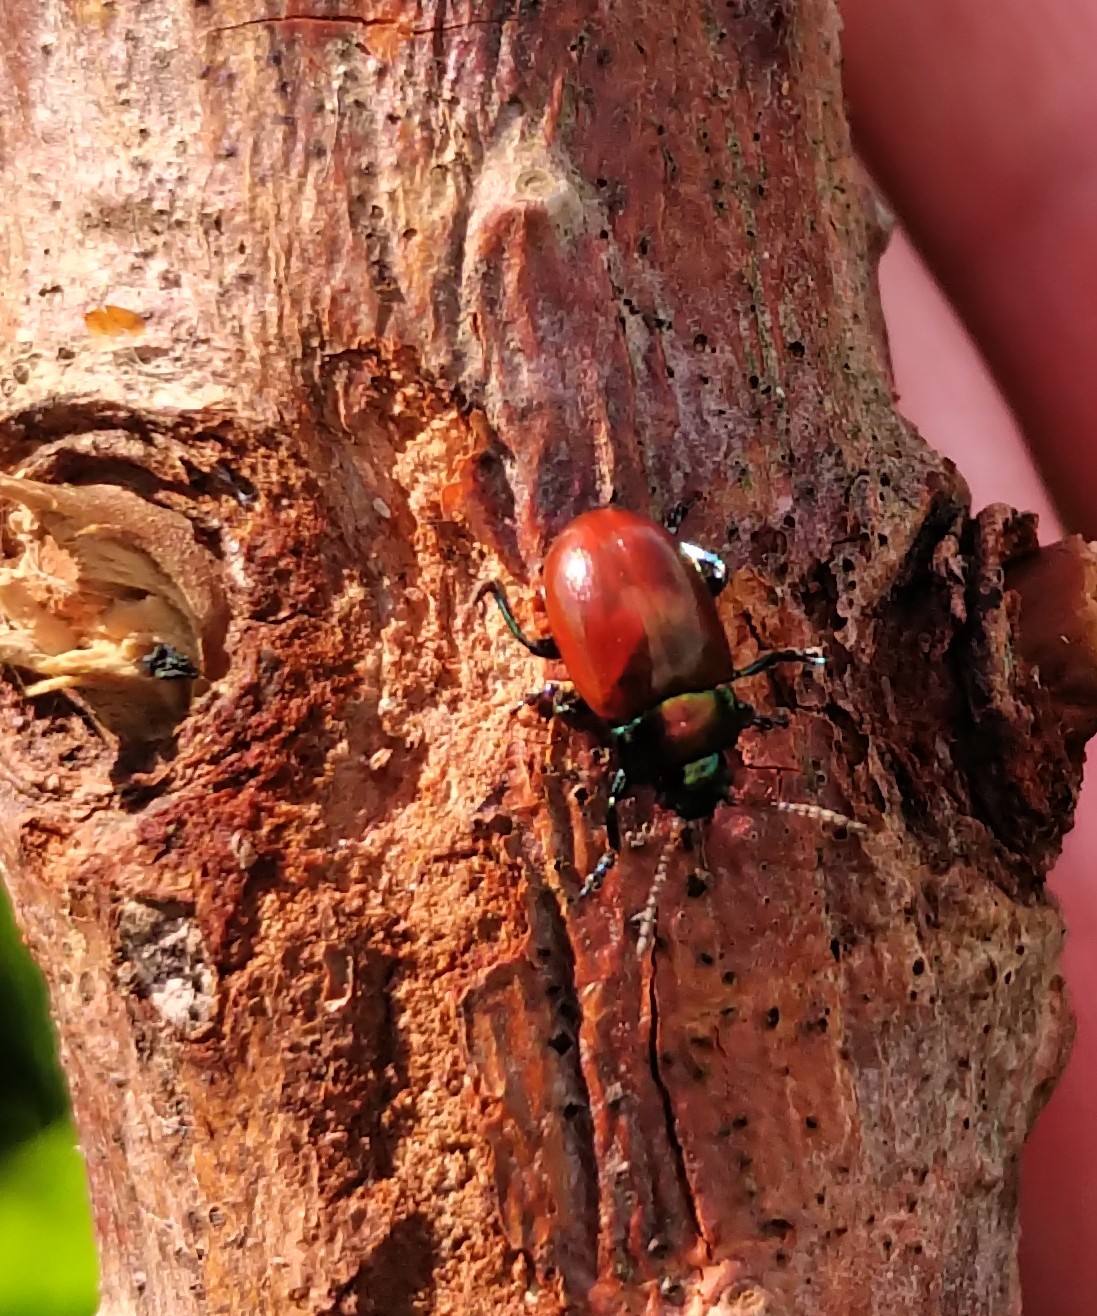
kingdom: Animalia
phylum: Arthropoda
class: Insecta
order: Coleoptera
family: Chrysomelidae
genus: Chrysomela
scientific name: Chrysomela polita
